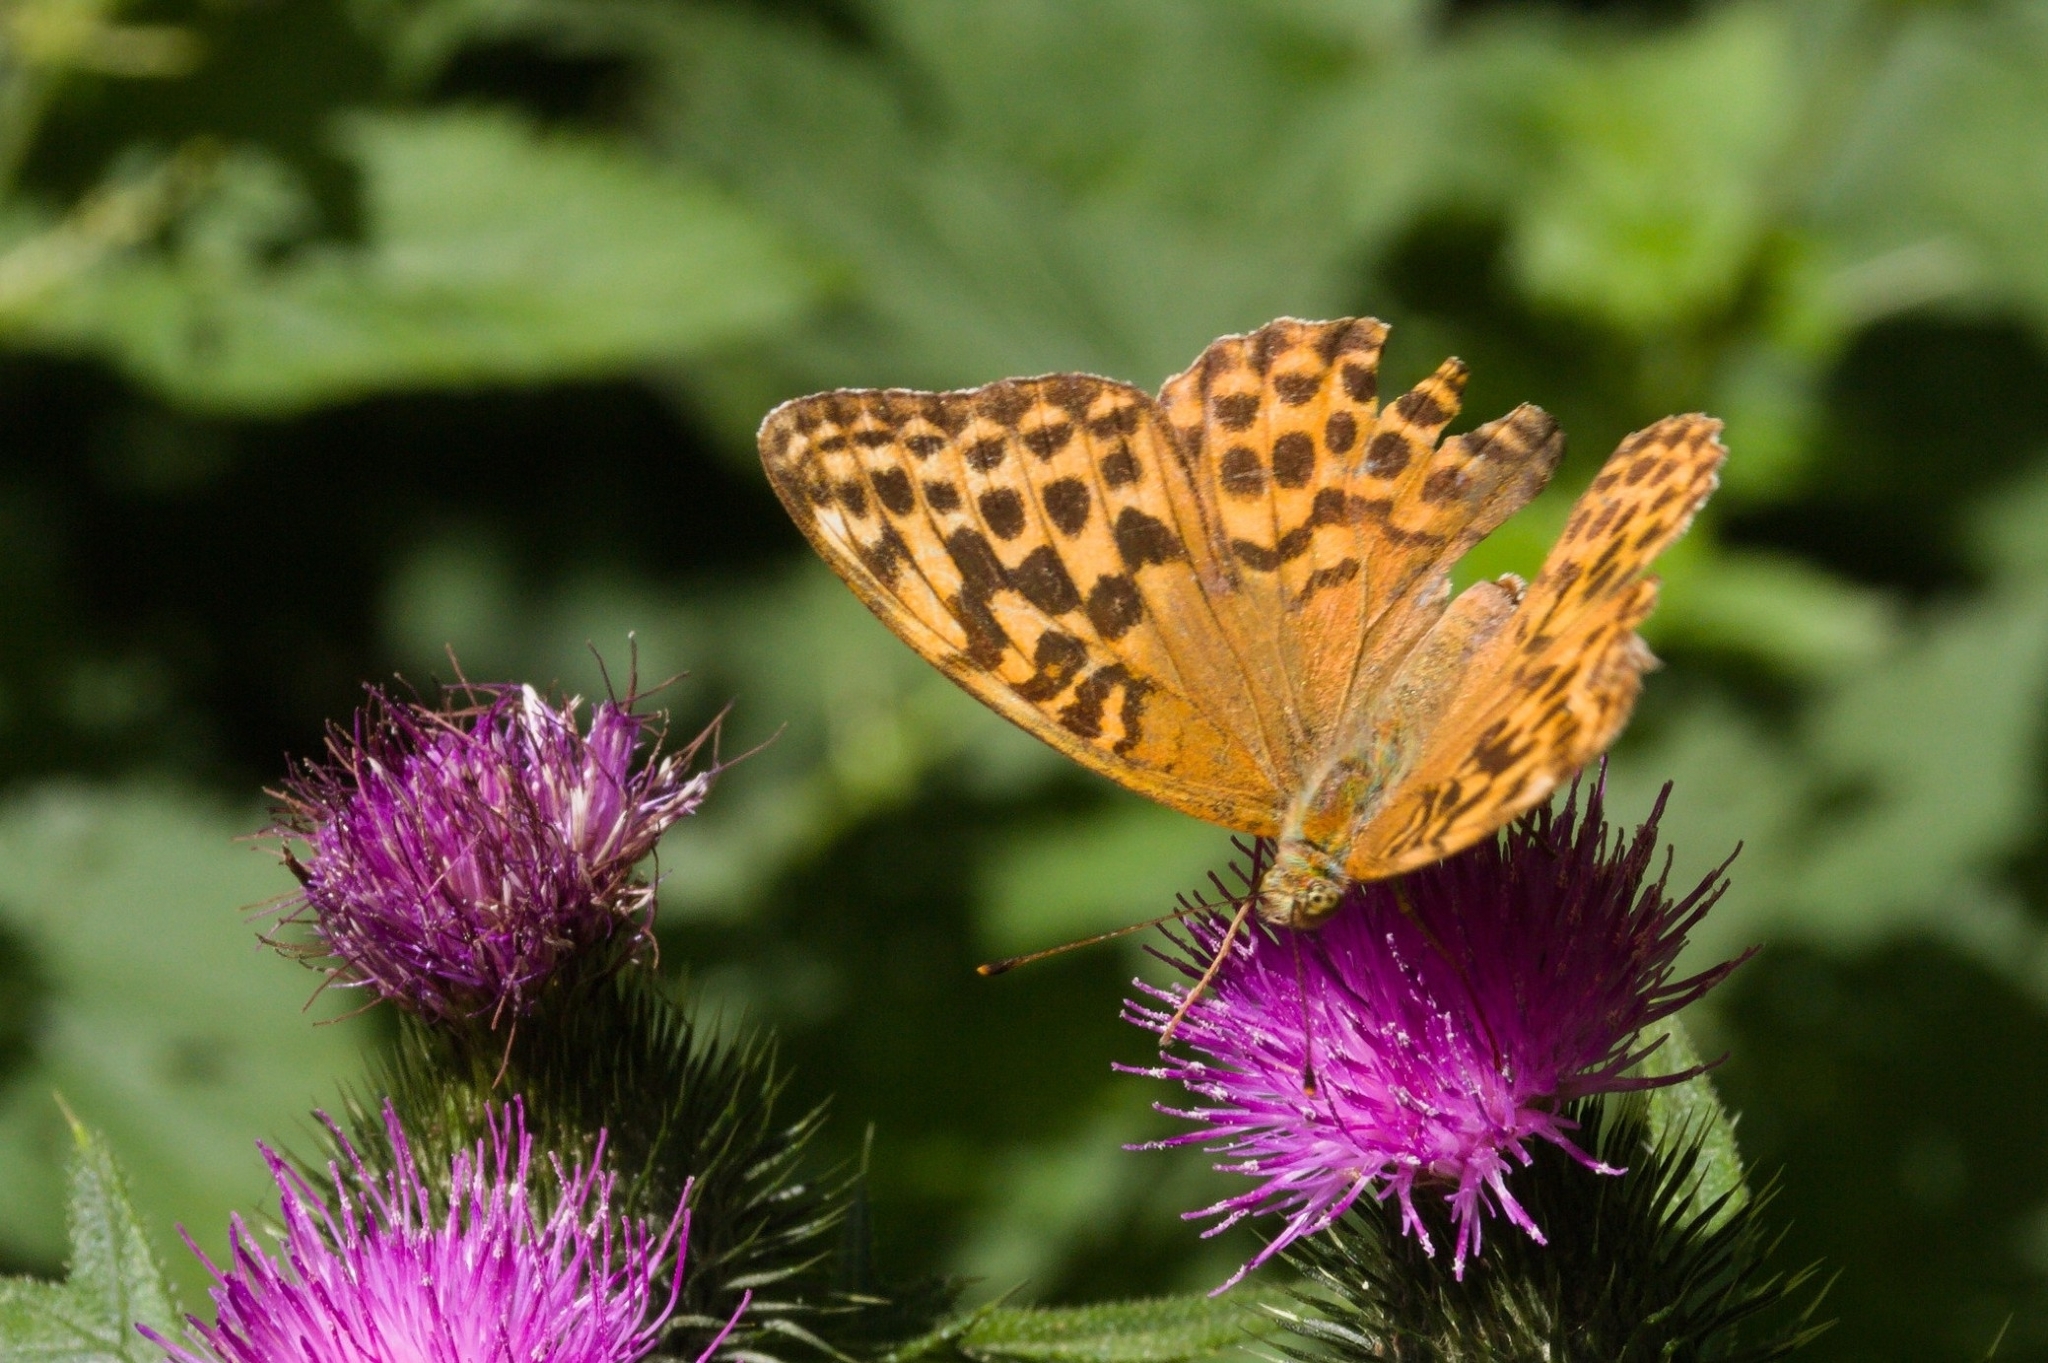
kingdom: Animalia
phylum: Arthropoda
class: Insecta
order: Lepidoptera
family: Nymphalidae
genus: Argynnis
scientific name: Argynnis paphia
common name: Silver-washed fritillary
